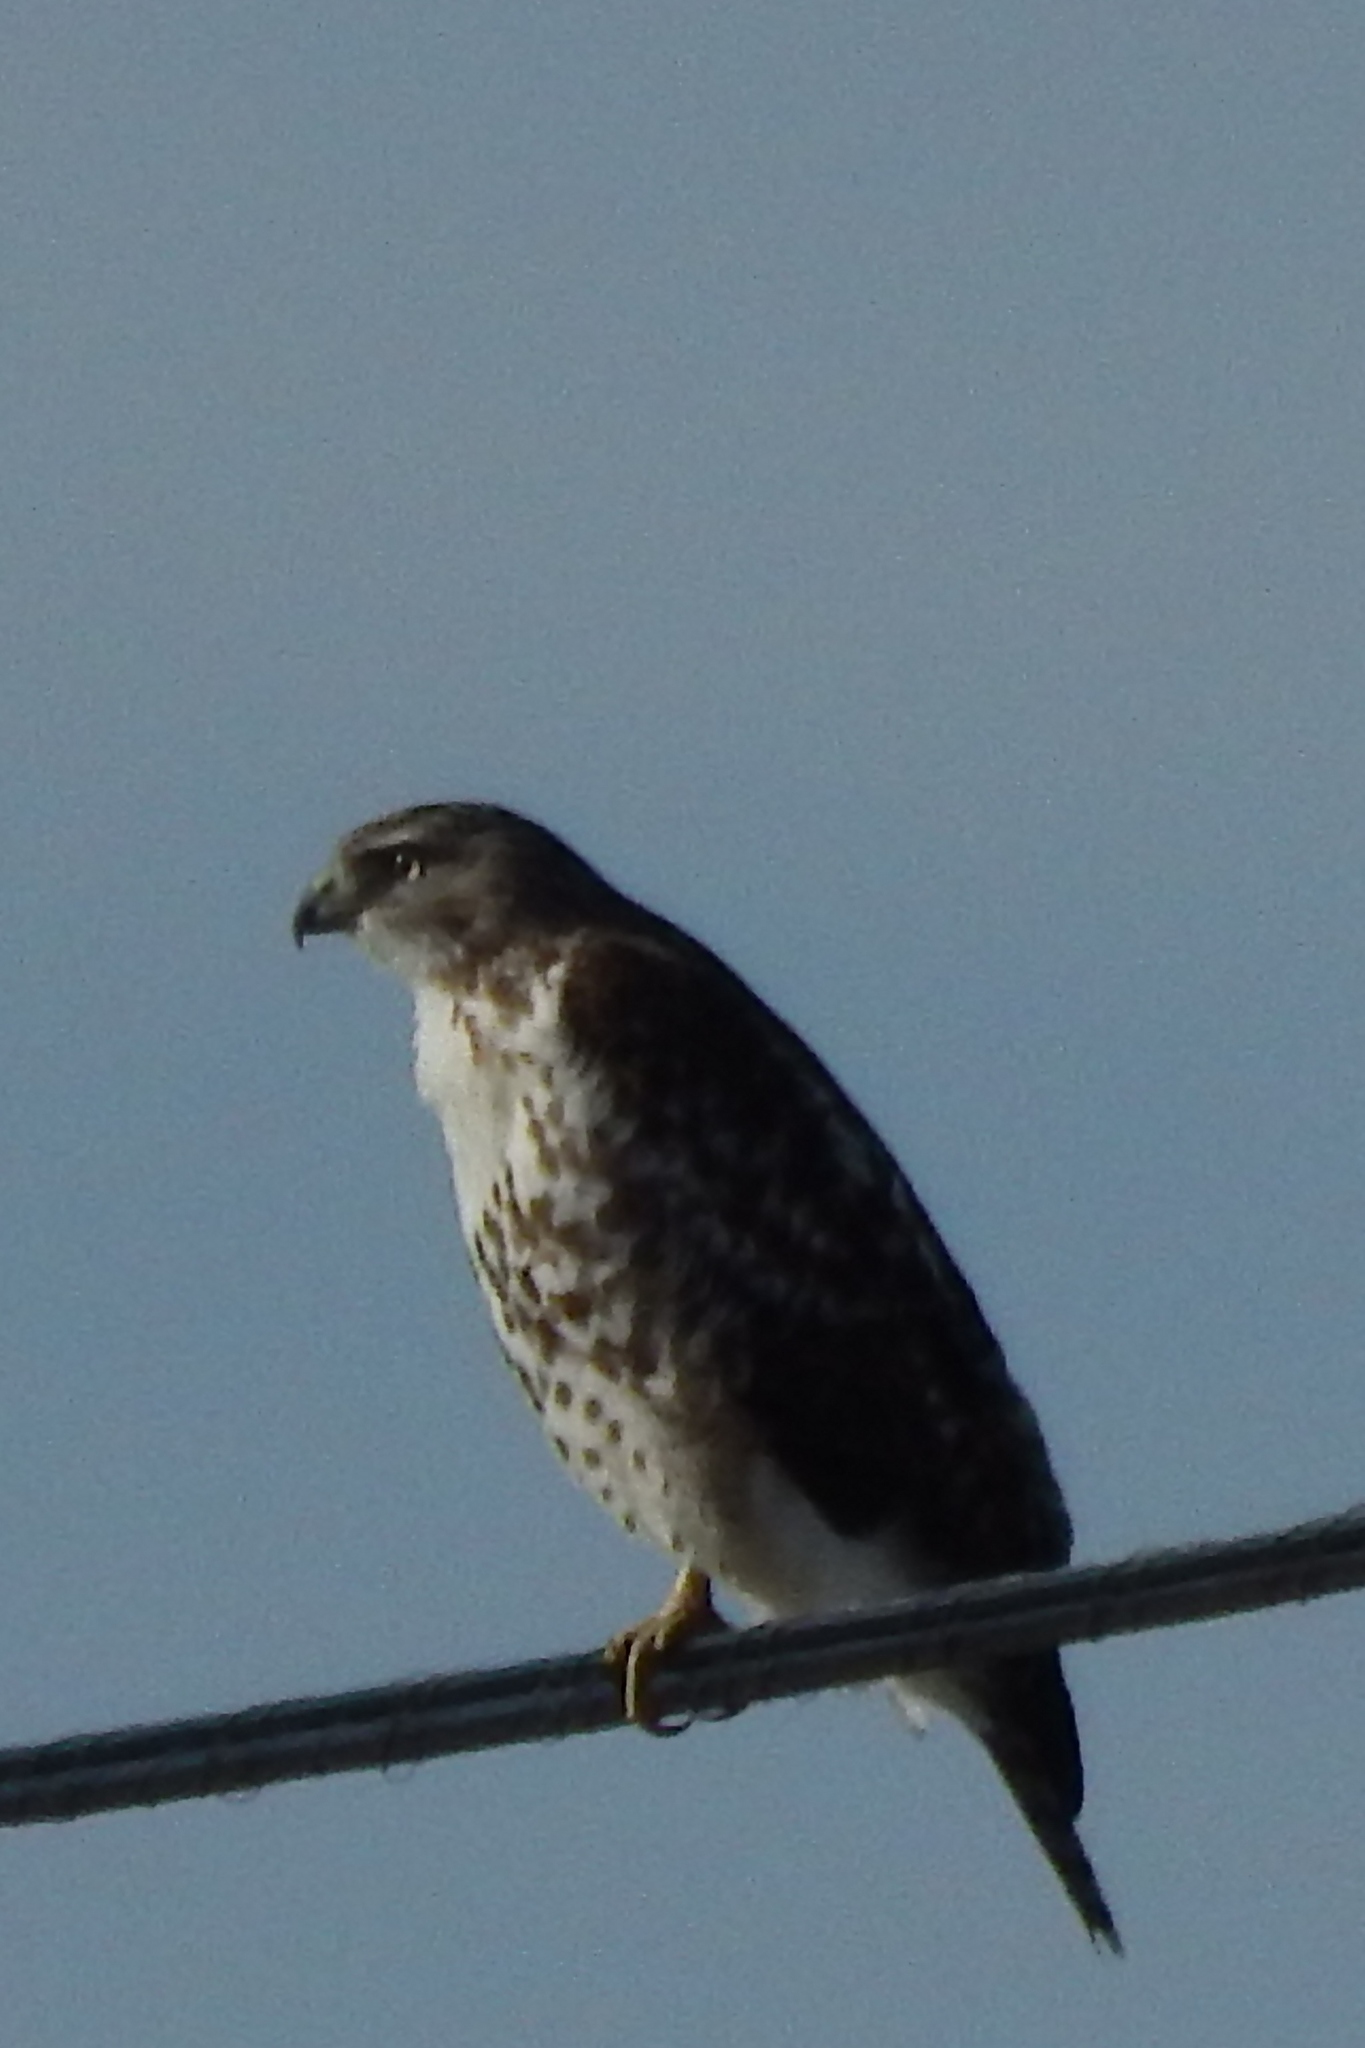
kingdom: Animalia
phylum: Chordata
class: Aves
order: Accipitriformes
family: Accipitridae
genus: Buteo
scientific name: Buteo jamaicensis
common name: Red-tailed hawk
